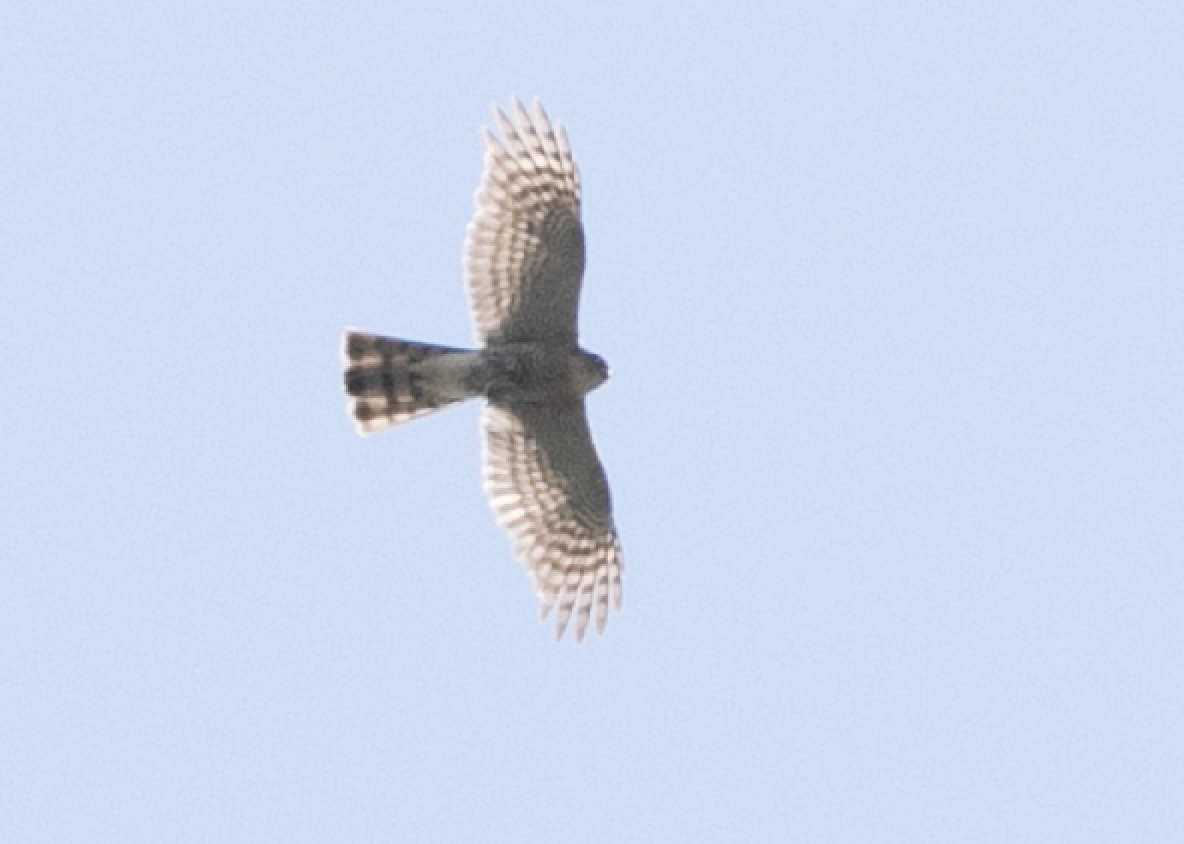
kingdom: Animalia
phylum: Chordata
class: Aves
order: Accipitriformes
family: Accipitridae
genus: Accipiter
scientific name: Accipiter nisus
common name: Eurasian sparrowhawk
